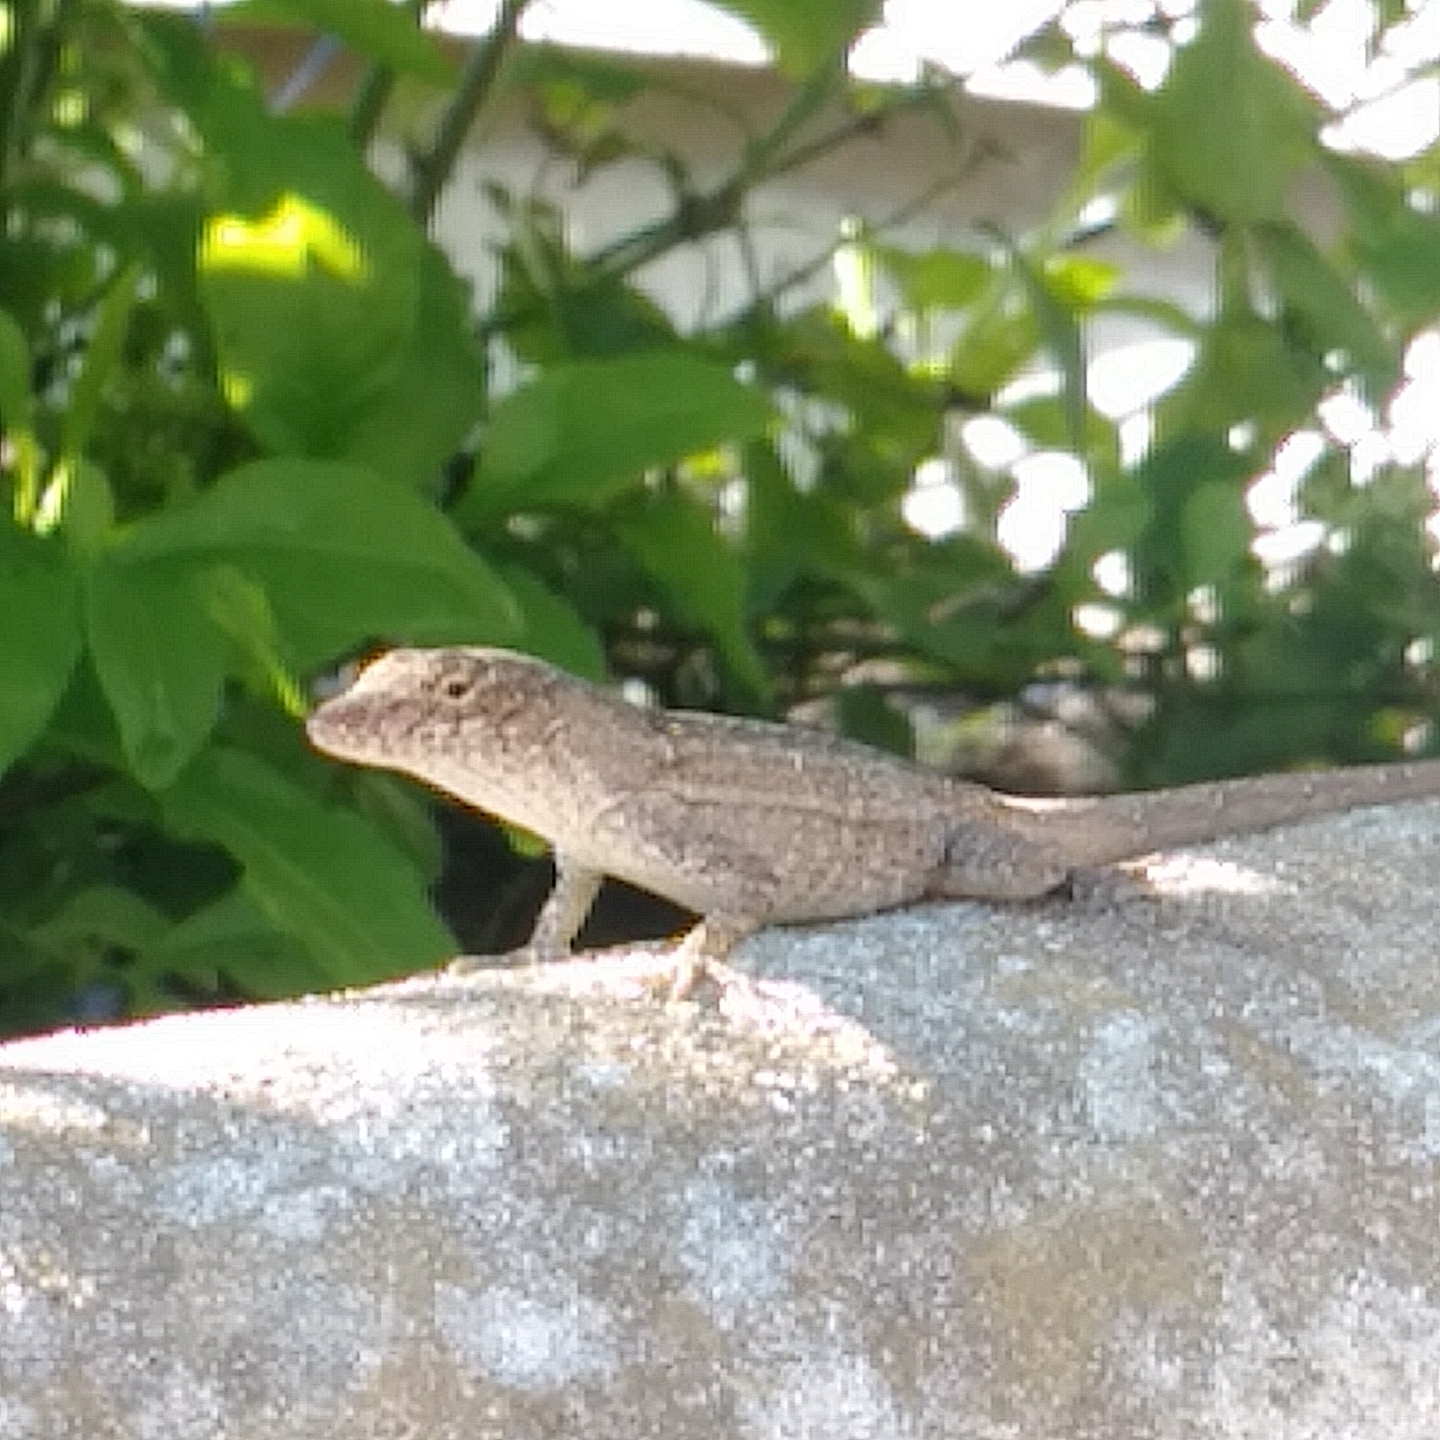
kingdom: Animalia
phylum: Chordata
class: Squamata
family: Dactyloidae
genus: Anolis
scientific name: Anolis sagrei
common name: Brown anole
